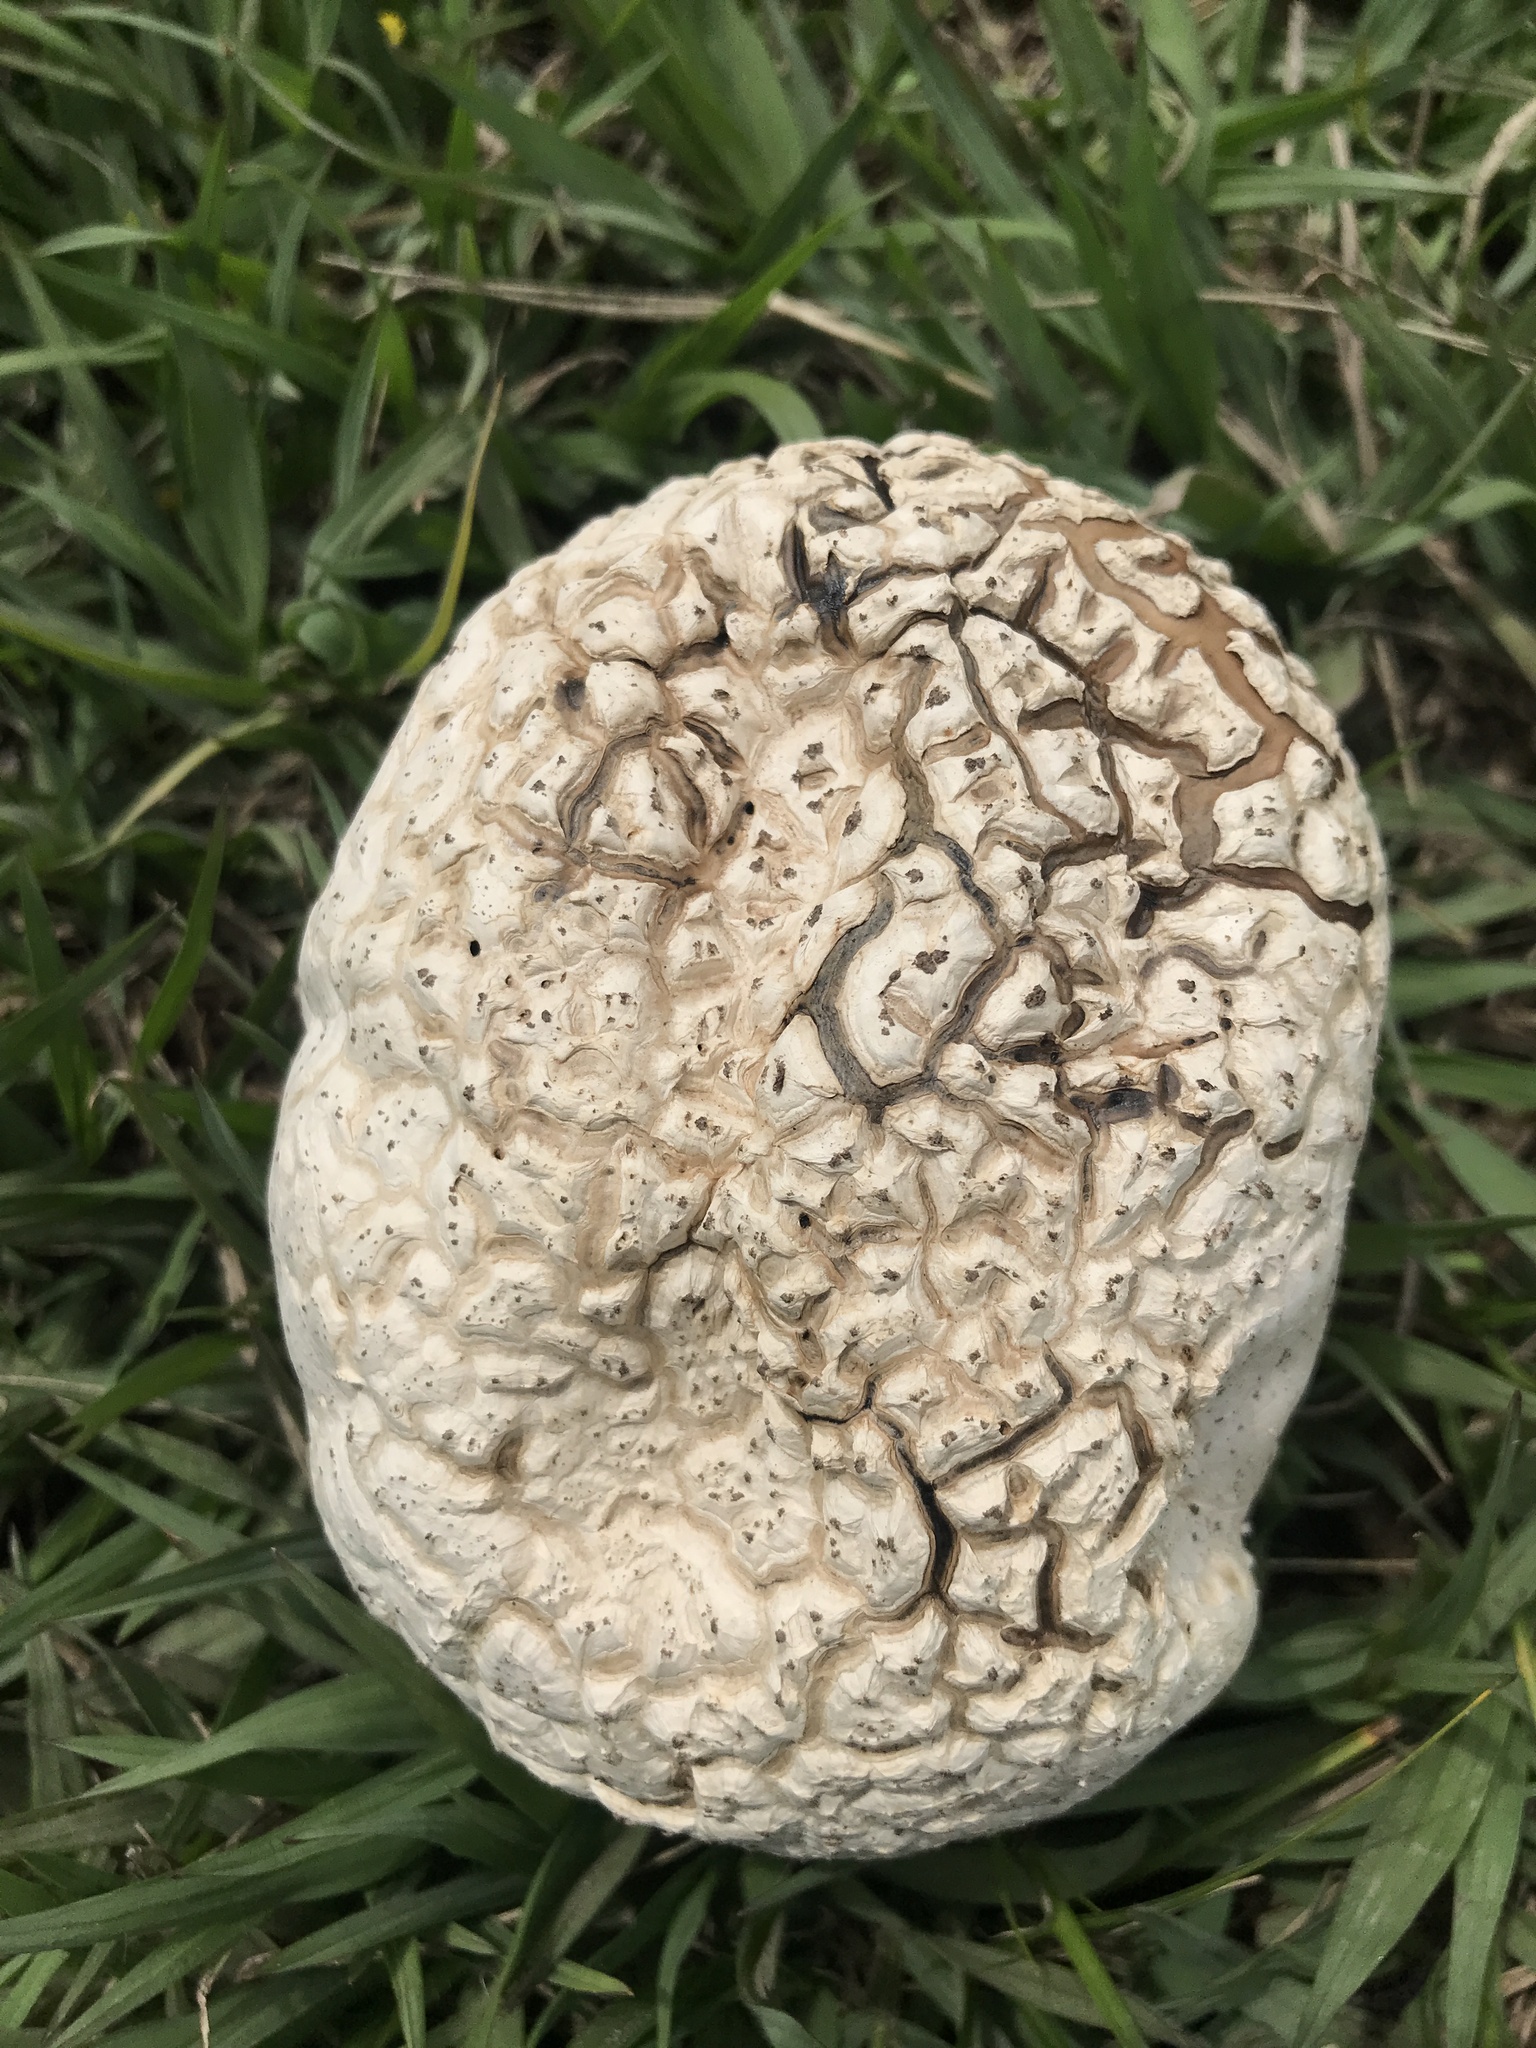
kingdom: Fungi
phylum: Basidiomycota
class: Agaricomycetes
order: Agaricales
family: Lycoperdaceae
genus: Calvatia
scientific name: Calvatia cyathiformis
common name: Purple-spored puffball
